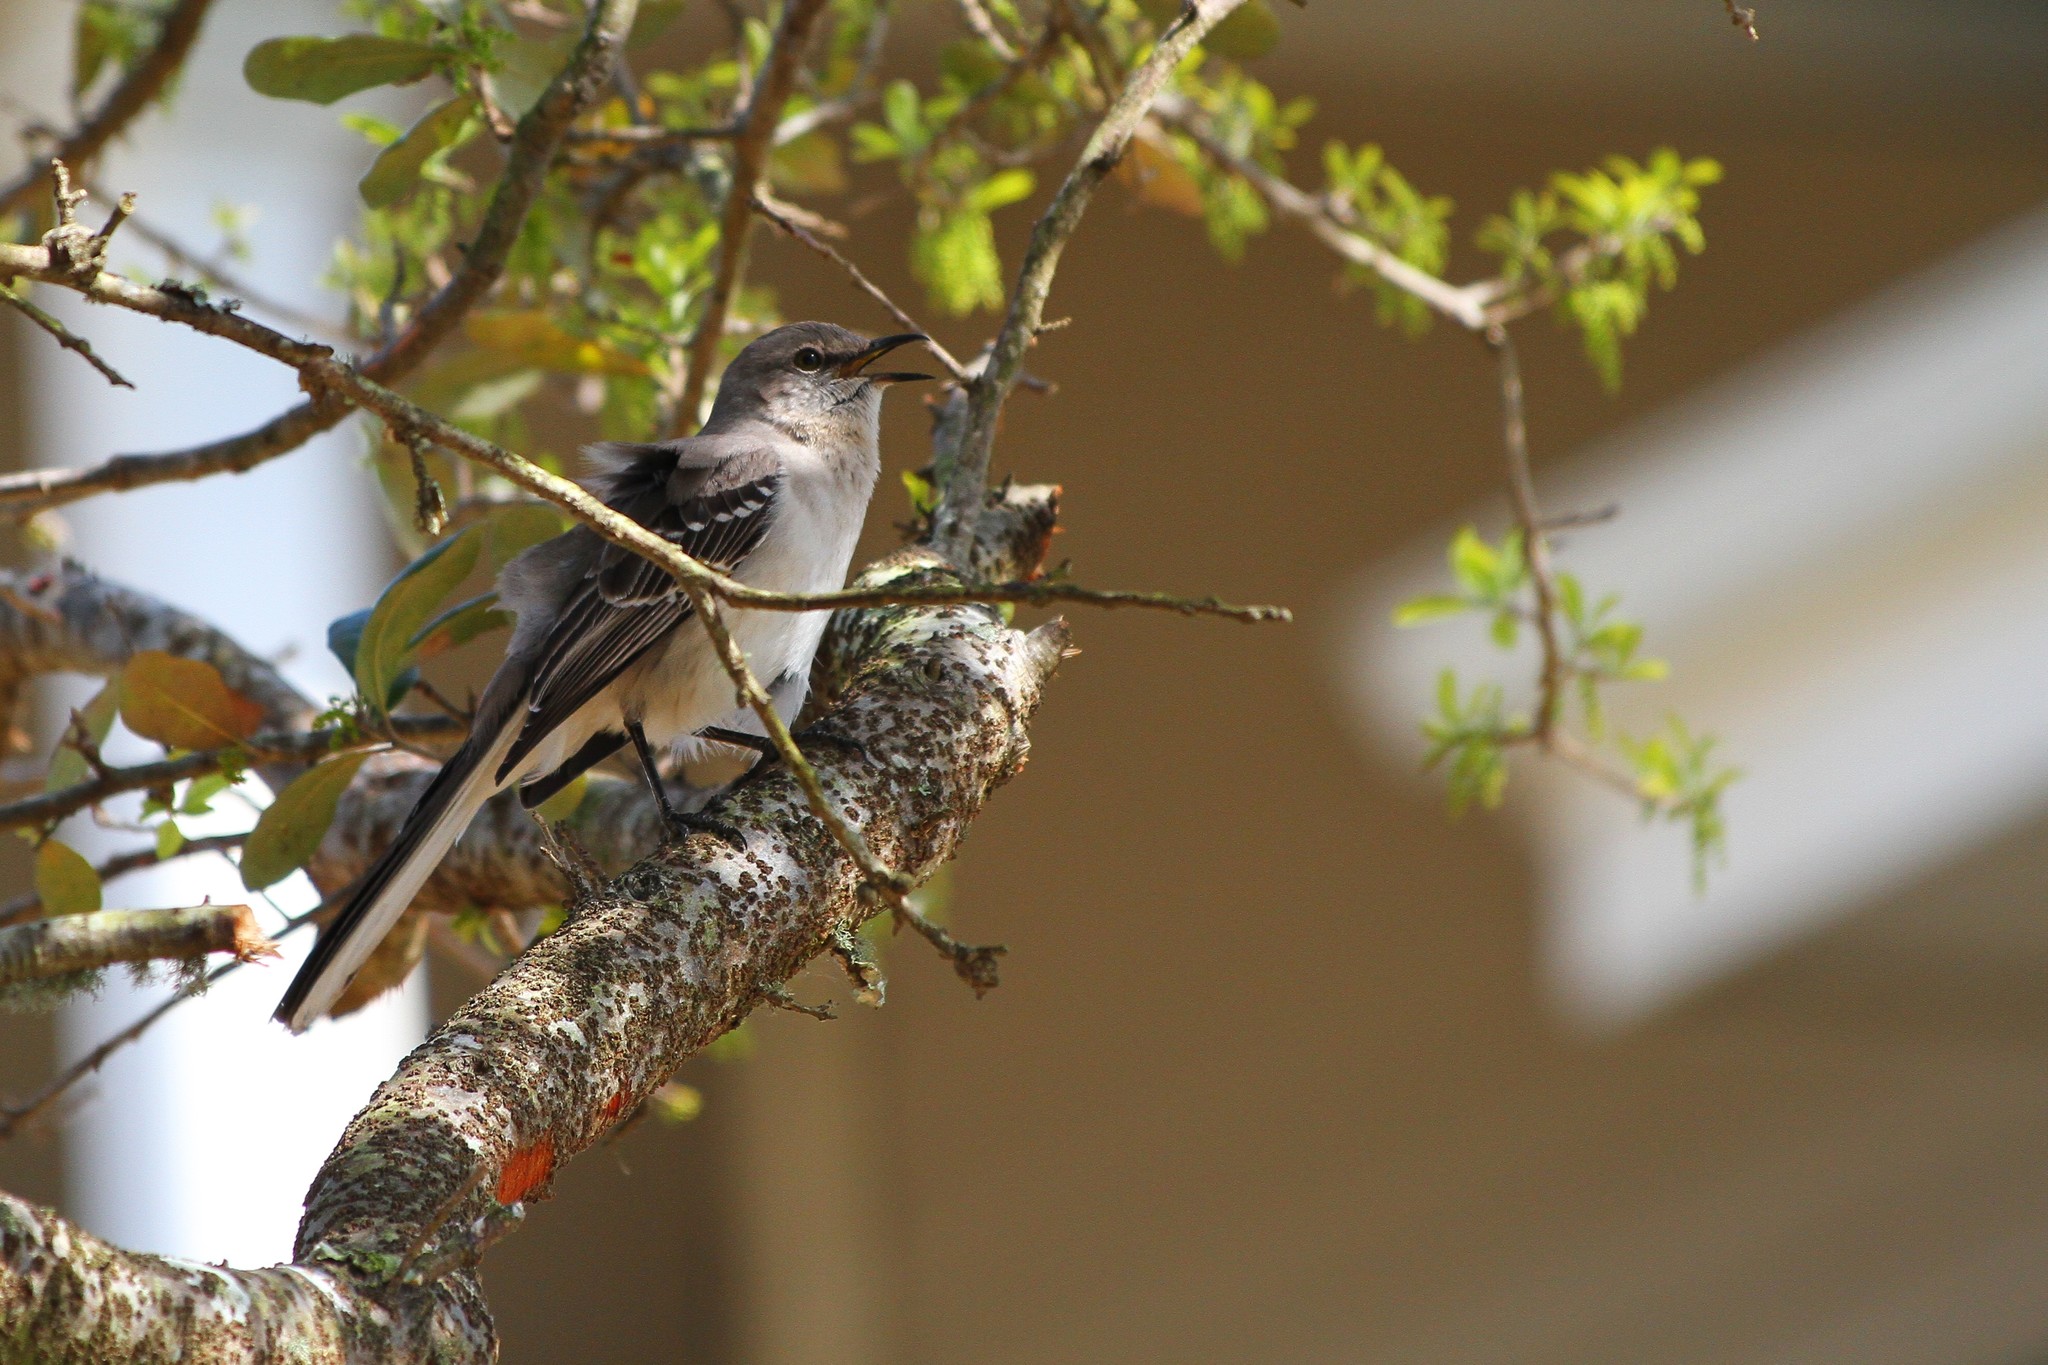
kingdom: Animalia
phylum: Chordata
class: Aves
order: Passeriformes
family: Mimidae
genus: Mimus
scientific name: Mimus polyglottos
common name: Northern mockingbird
